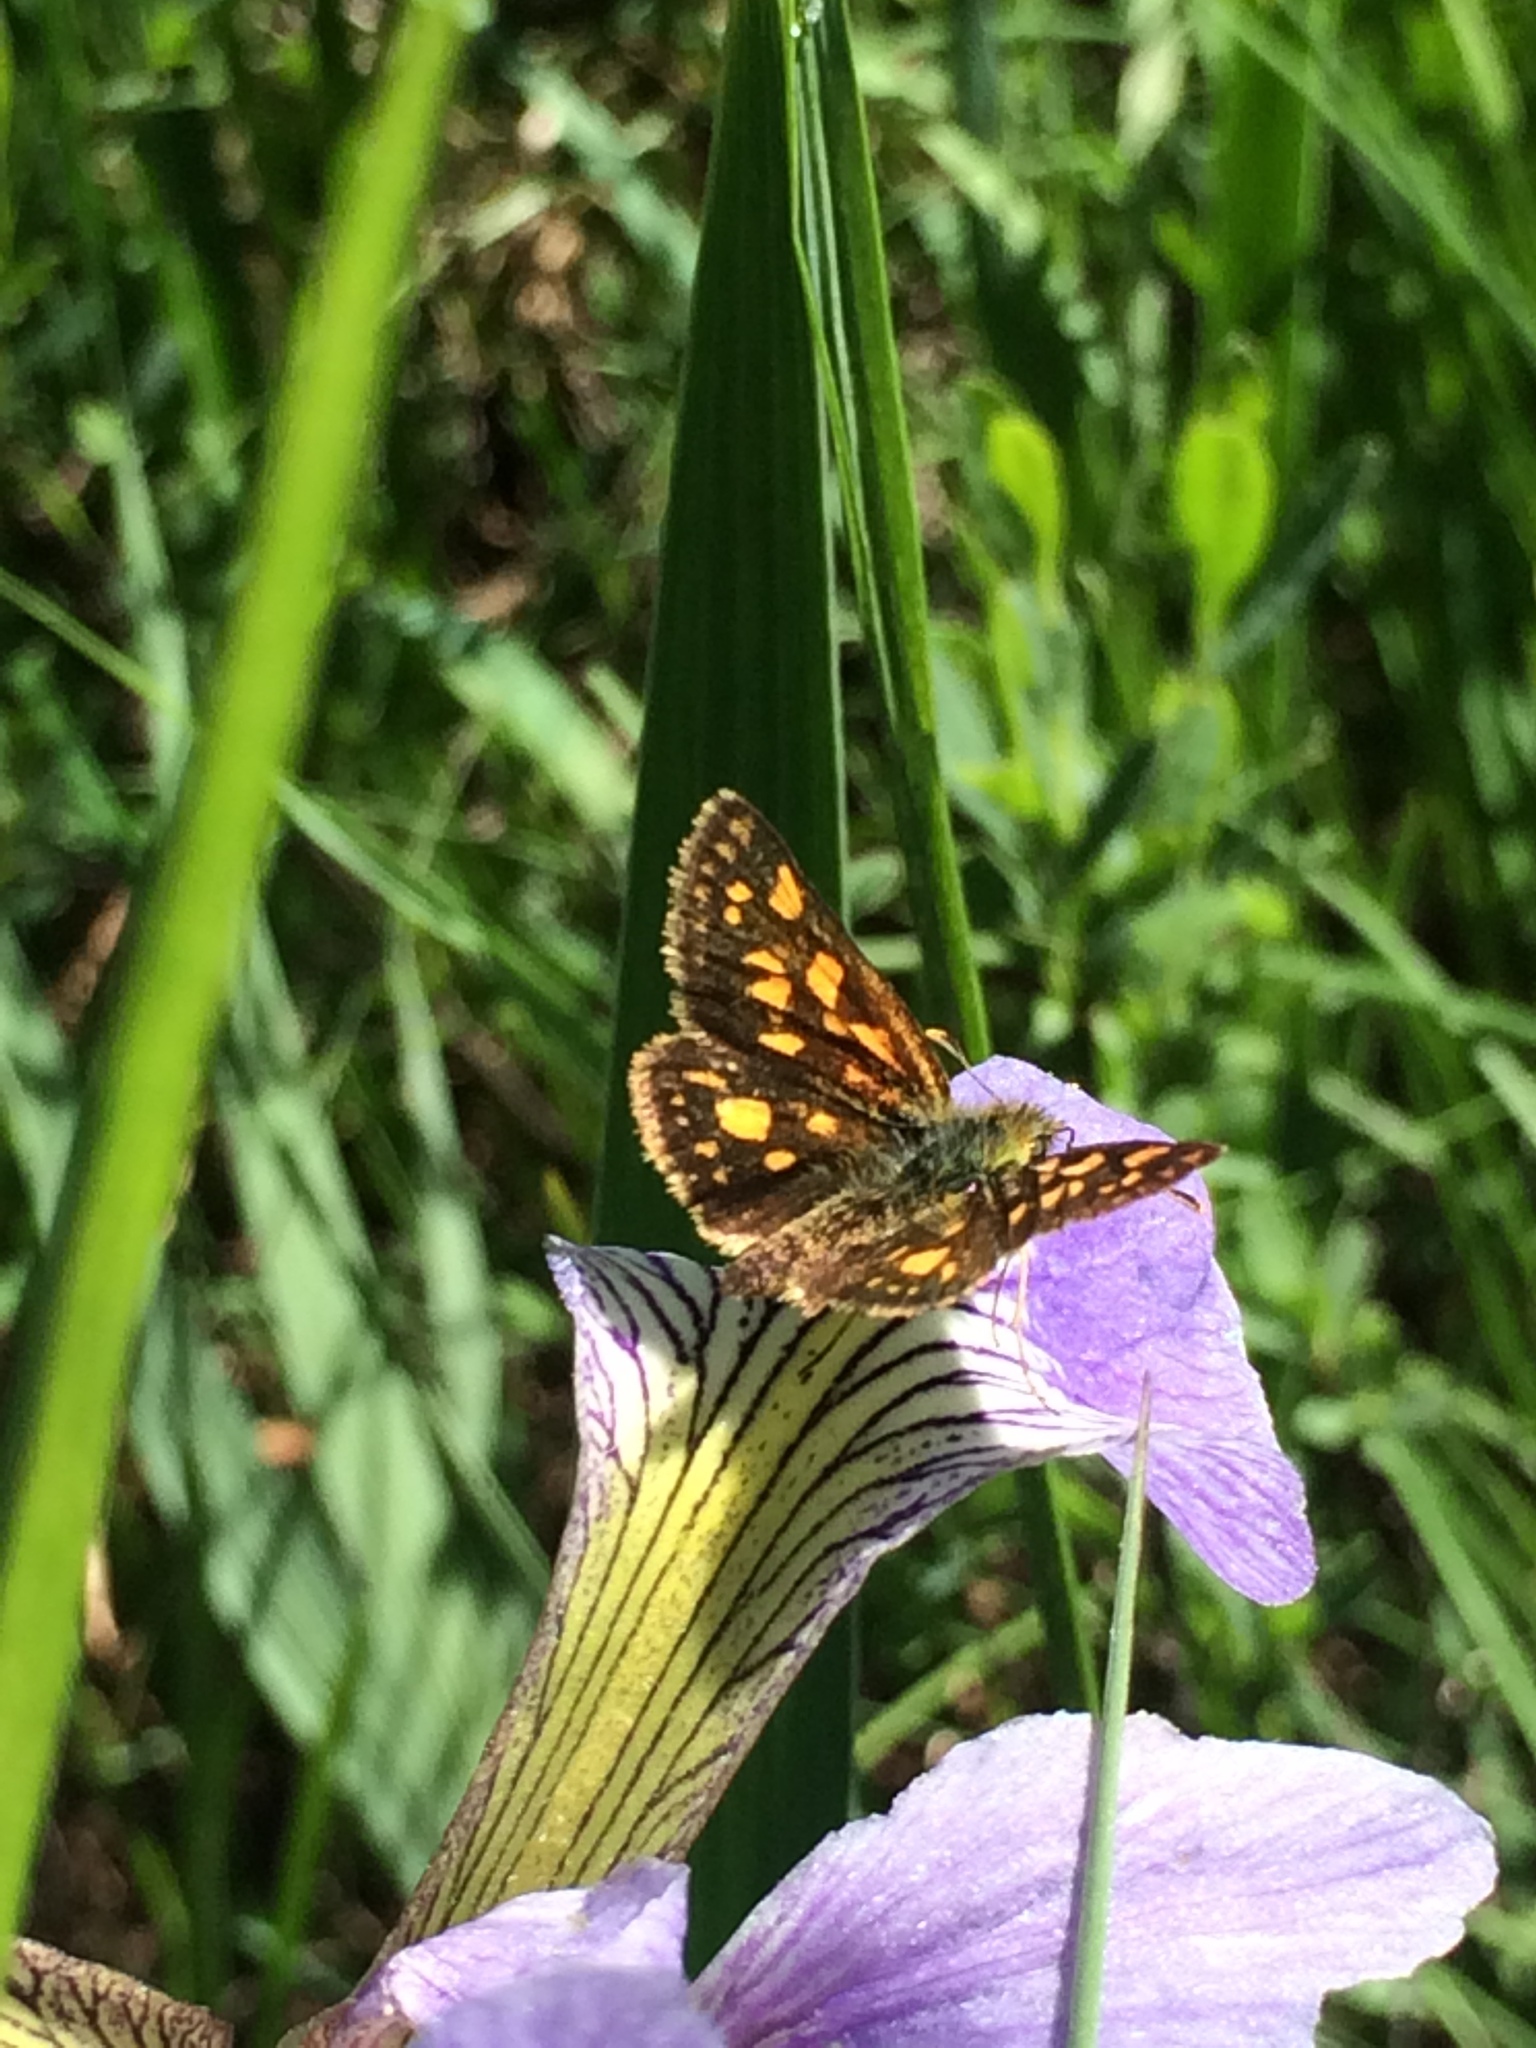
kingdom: Animalia
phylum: Arthropoda
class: Insecta
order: Lepidoptera
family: Hesperiidae
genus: Carterocephalus
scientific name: Carterocephalus mandan
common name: Arctic skipperling
